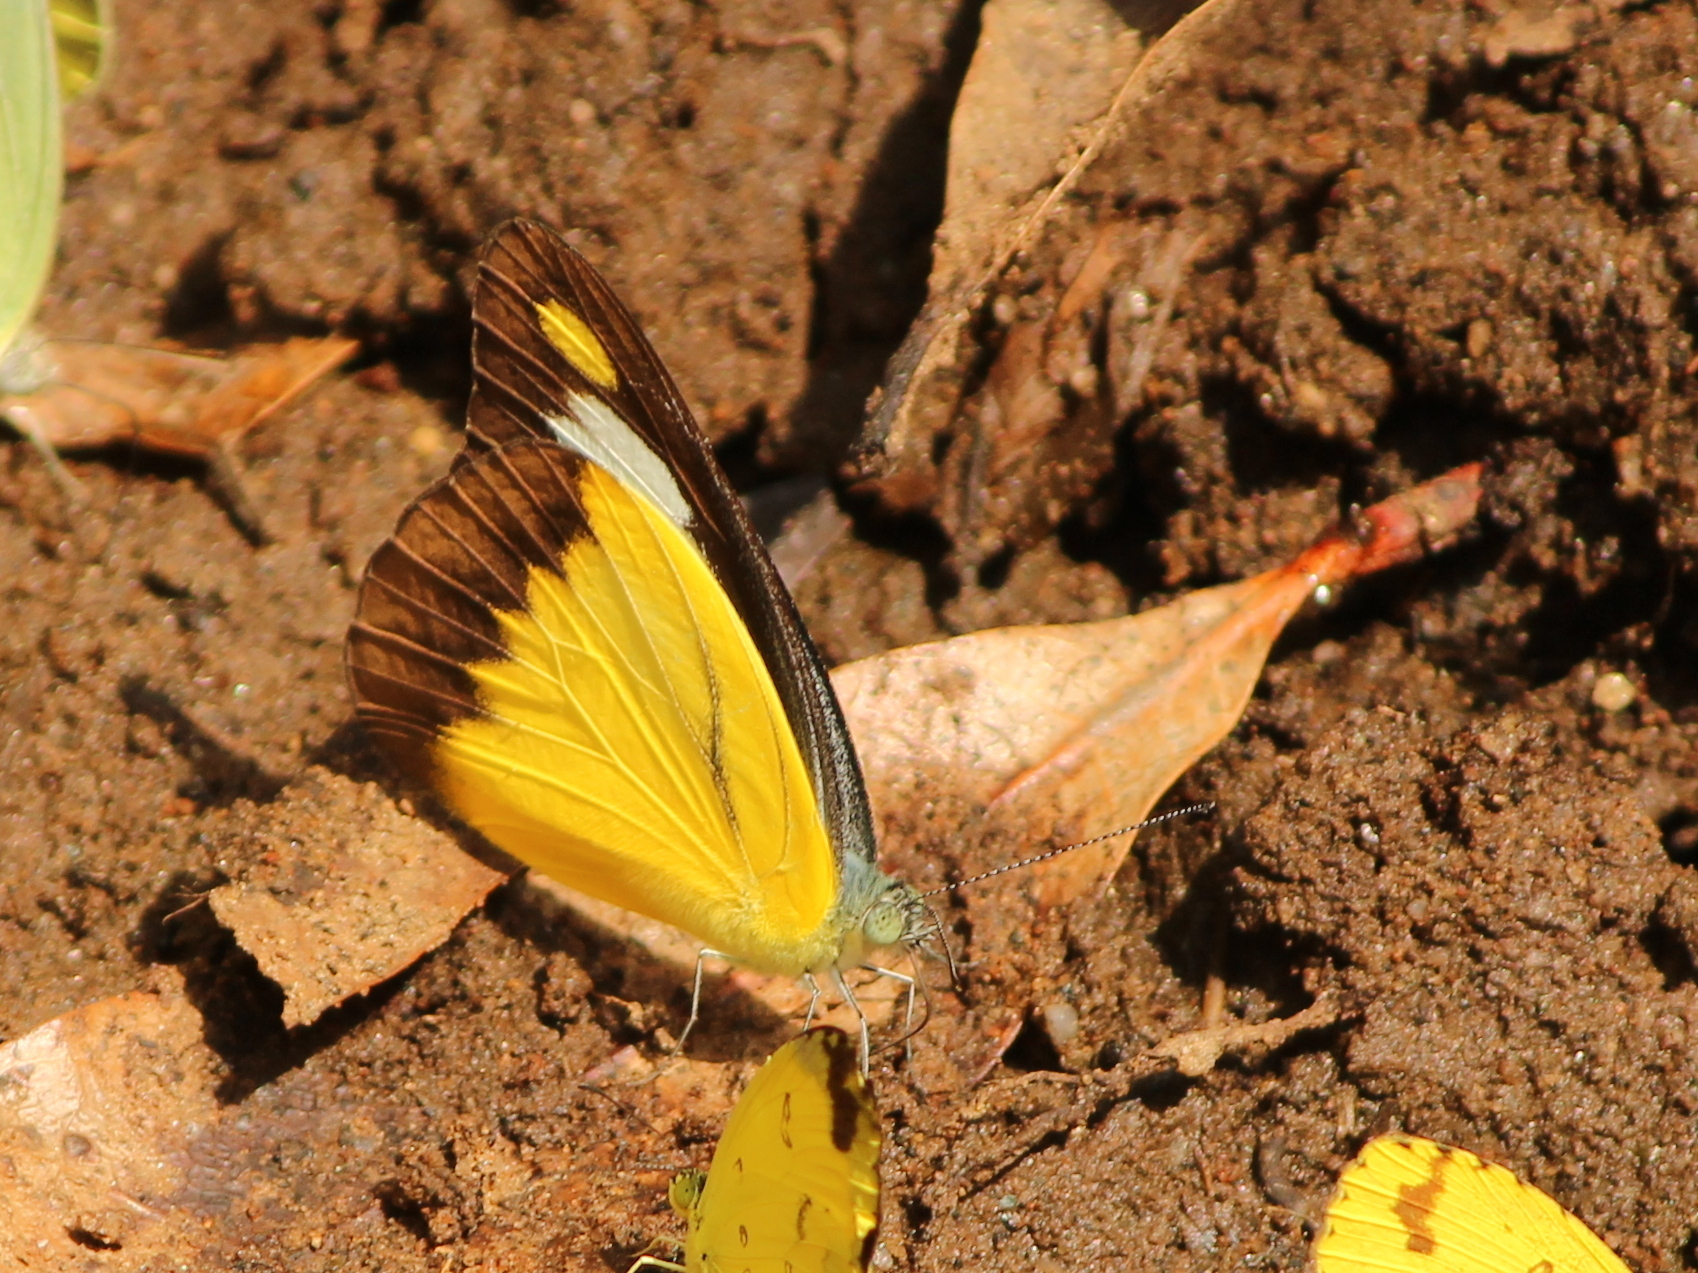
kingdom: Animalia
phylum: Arthropoda
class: Insecta
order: Lepidoptera
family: Pieridae
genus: Appias
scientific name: Appias lyncida
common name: Chocolate albatross
